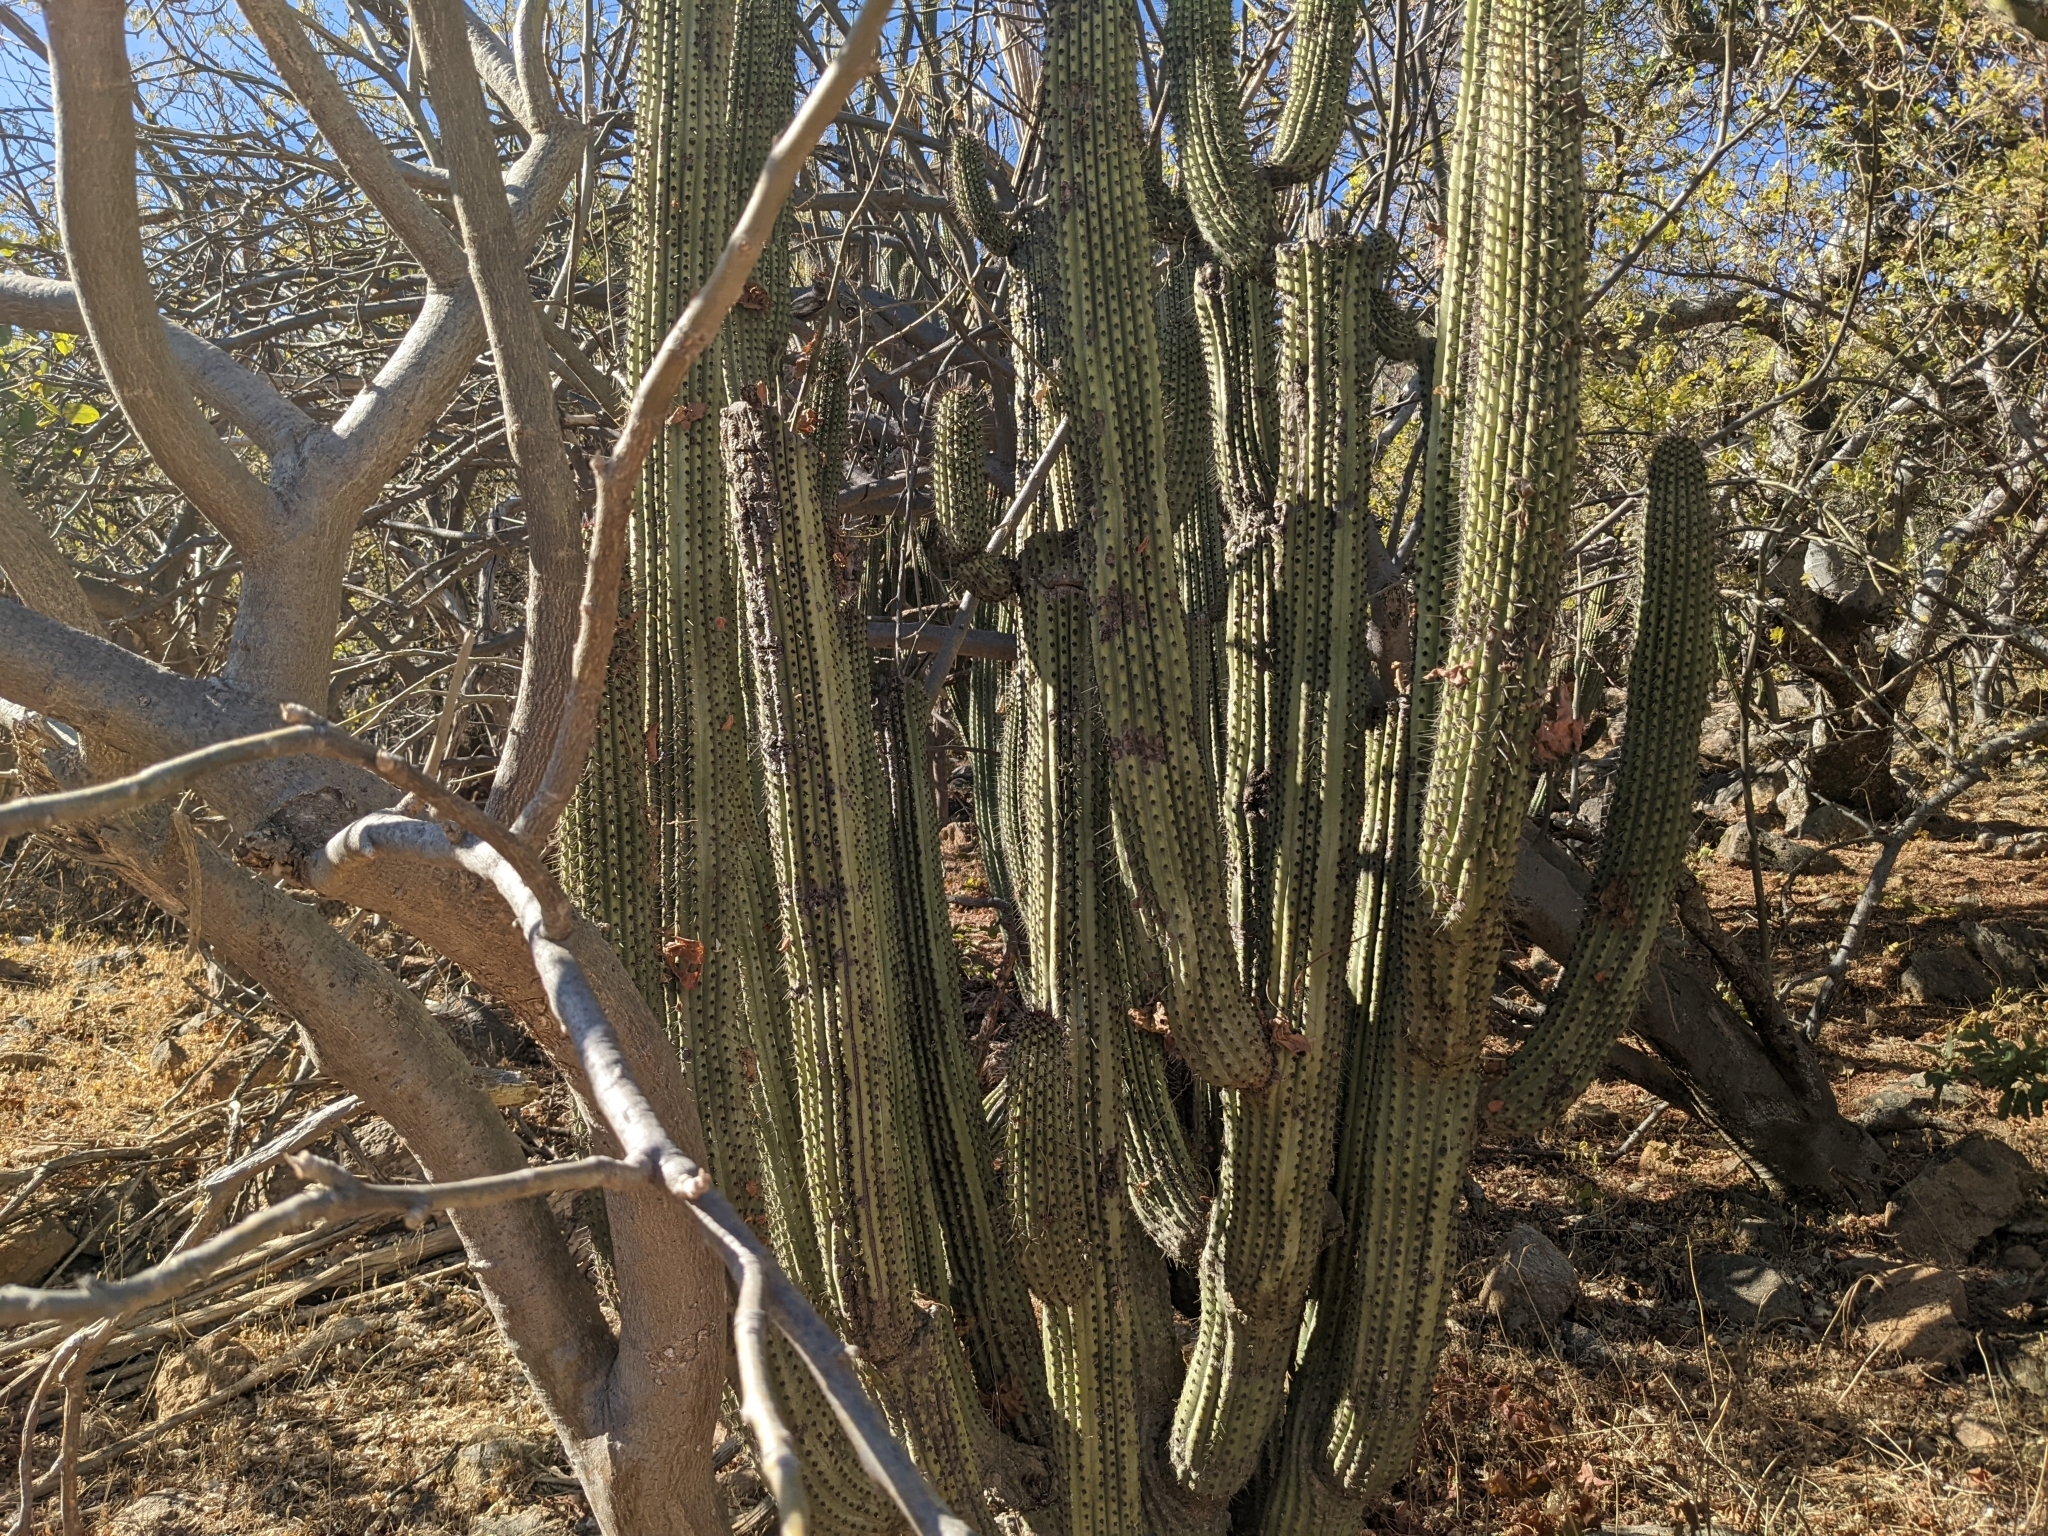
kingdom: Plantae
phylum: Tracheophyta
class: Magnoliopsida
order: Caryophyllales
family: Cactaceae
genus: Stenocereus
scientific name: Stenocereus thurberi
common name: Organ pipe cactus
